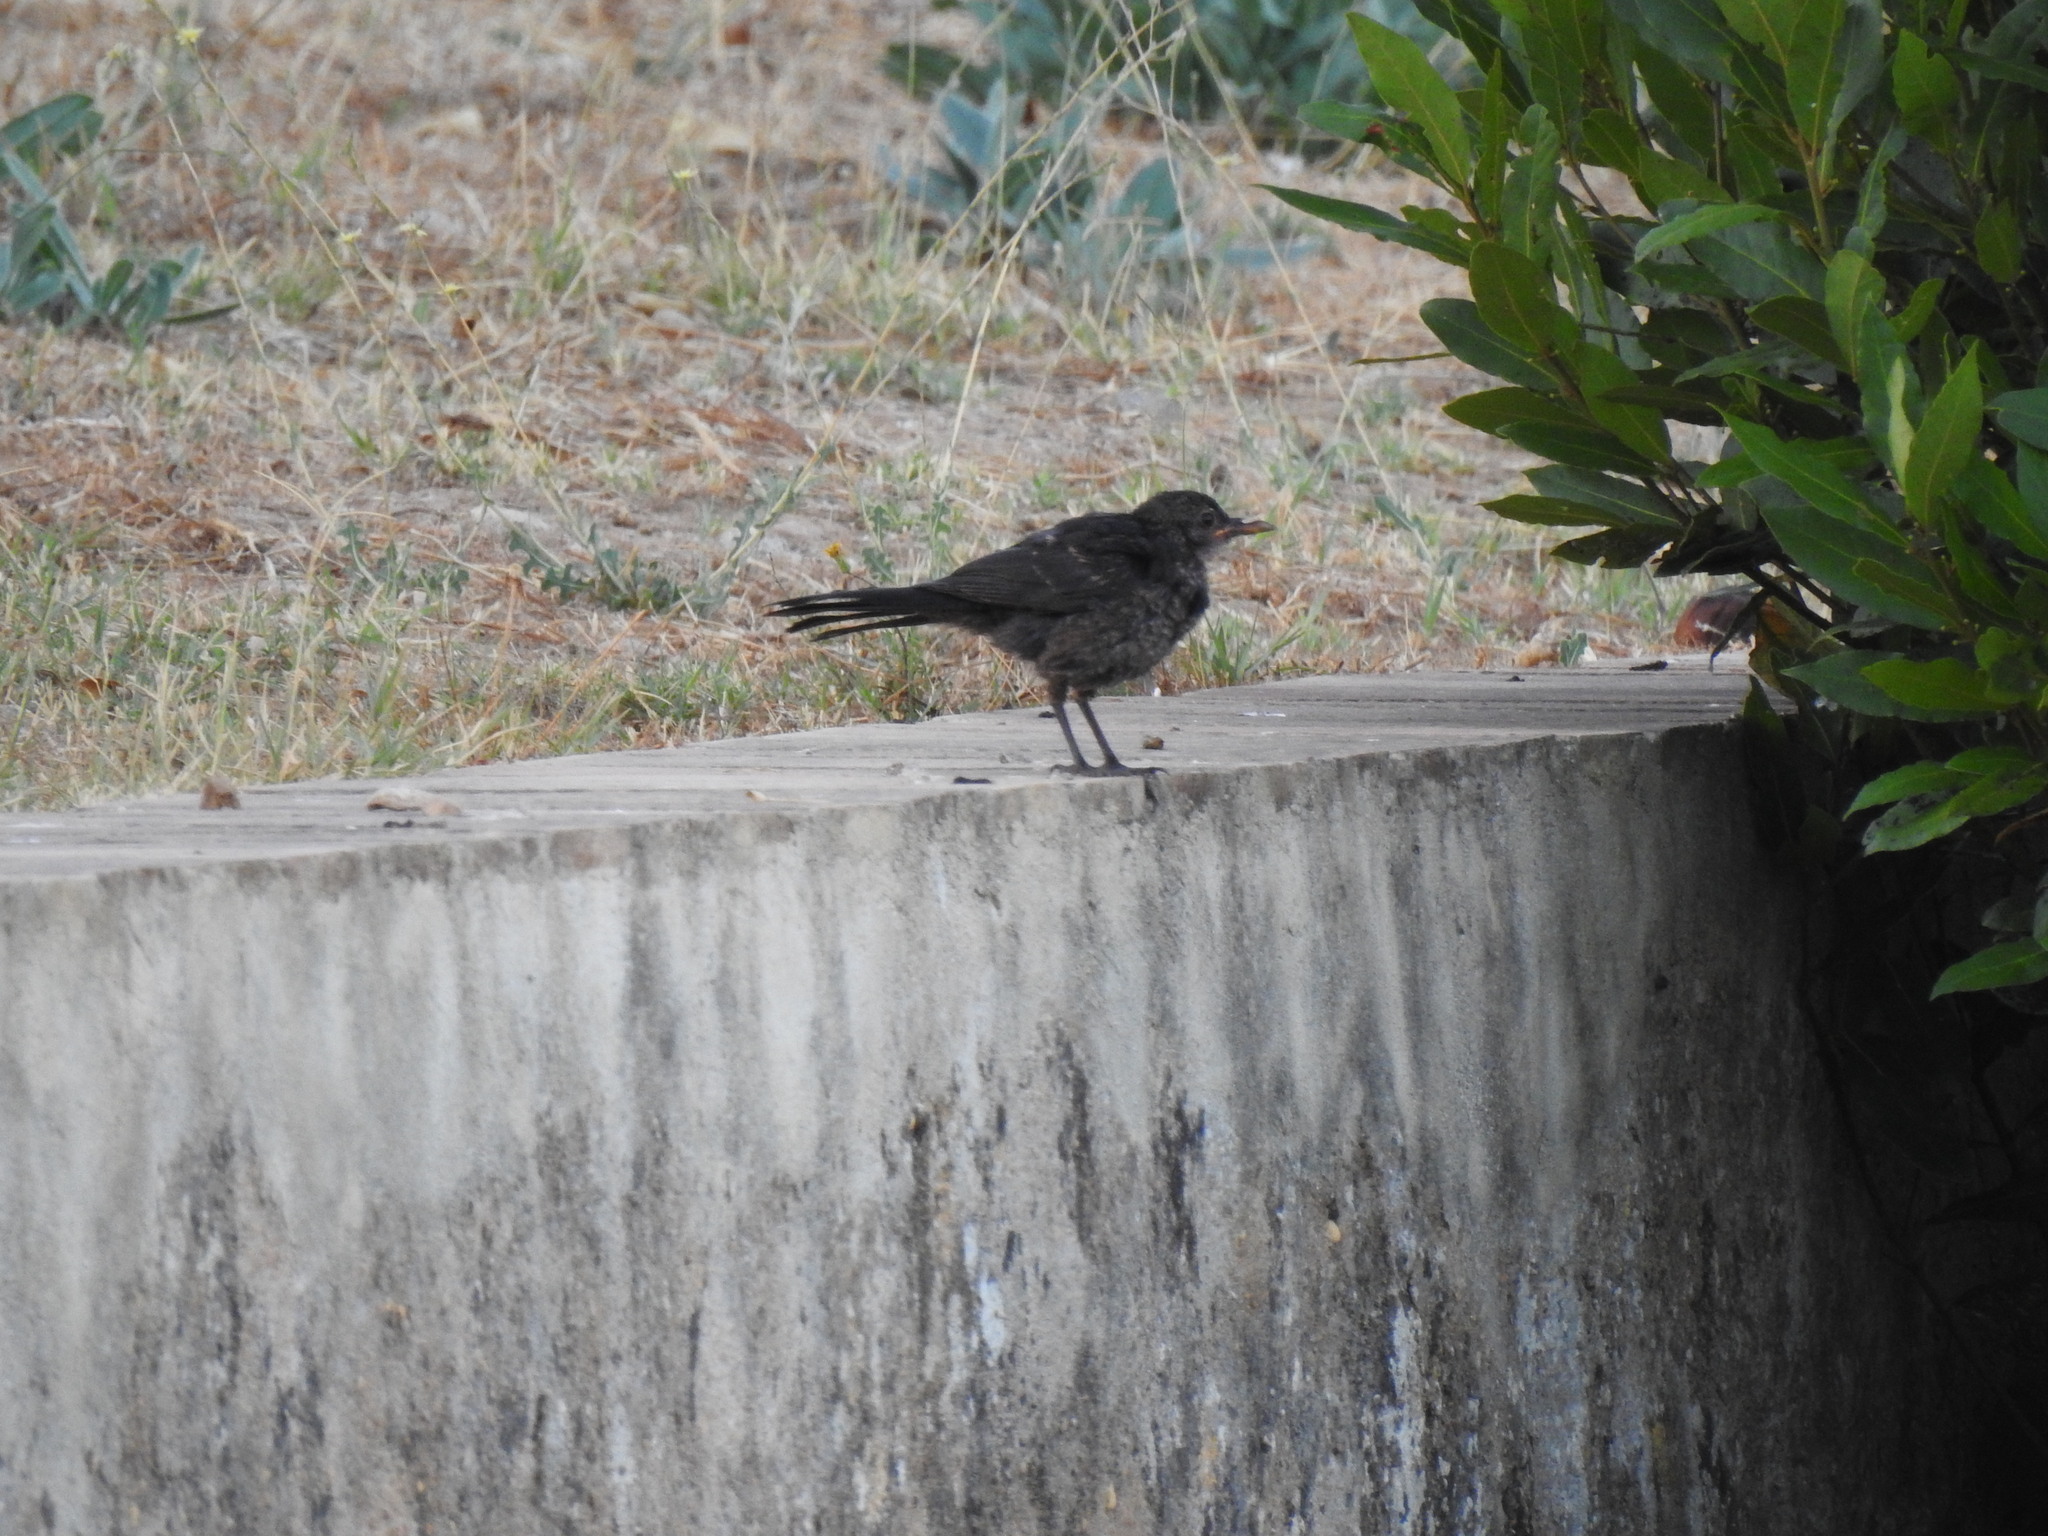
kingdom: Animalia
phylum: Chordata
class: Aves
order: Passeriformes
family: Turdidae
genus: Turdus
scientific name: Turdus merula
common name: Common blackbird
